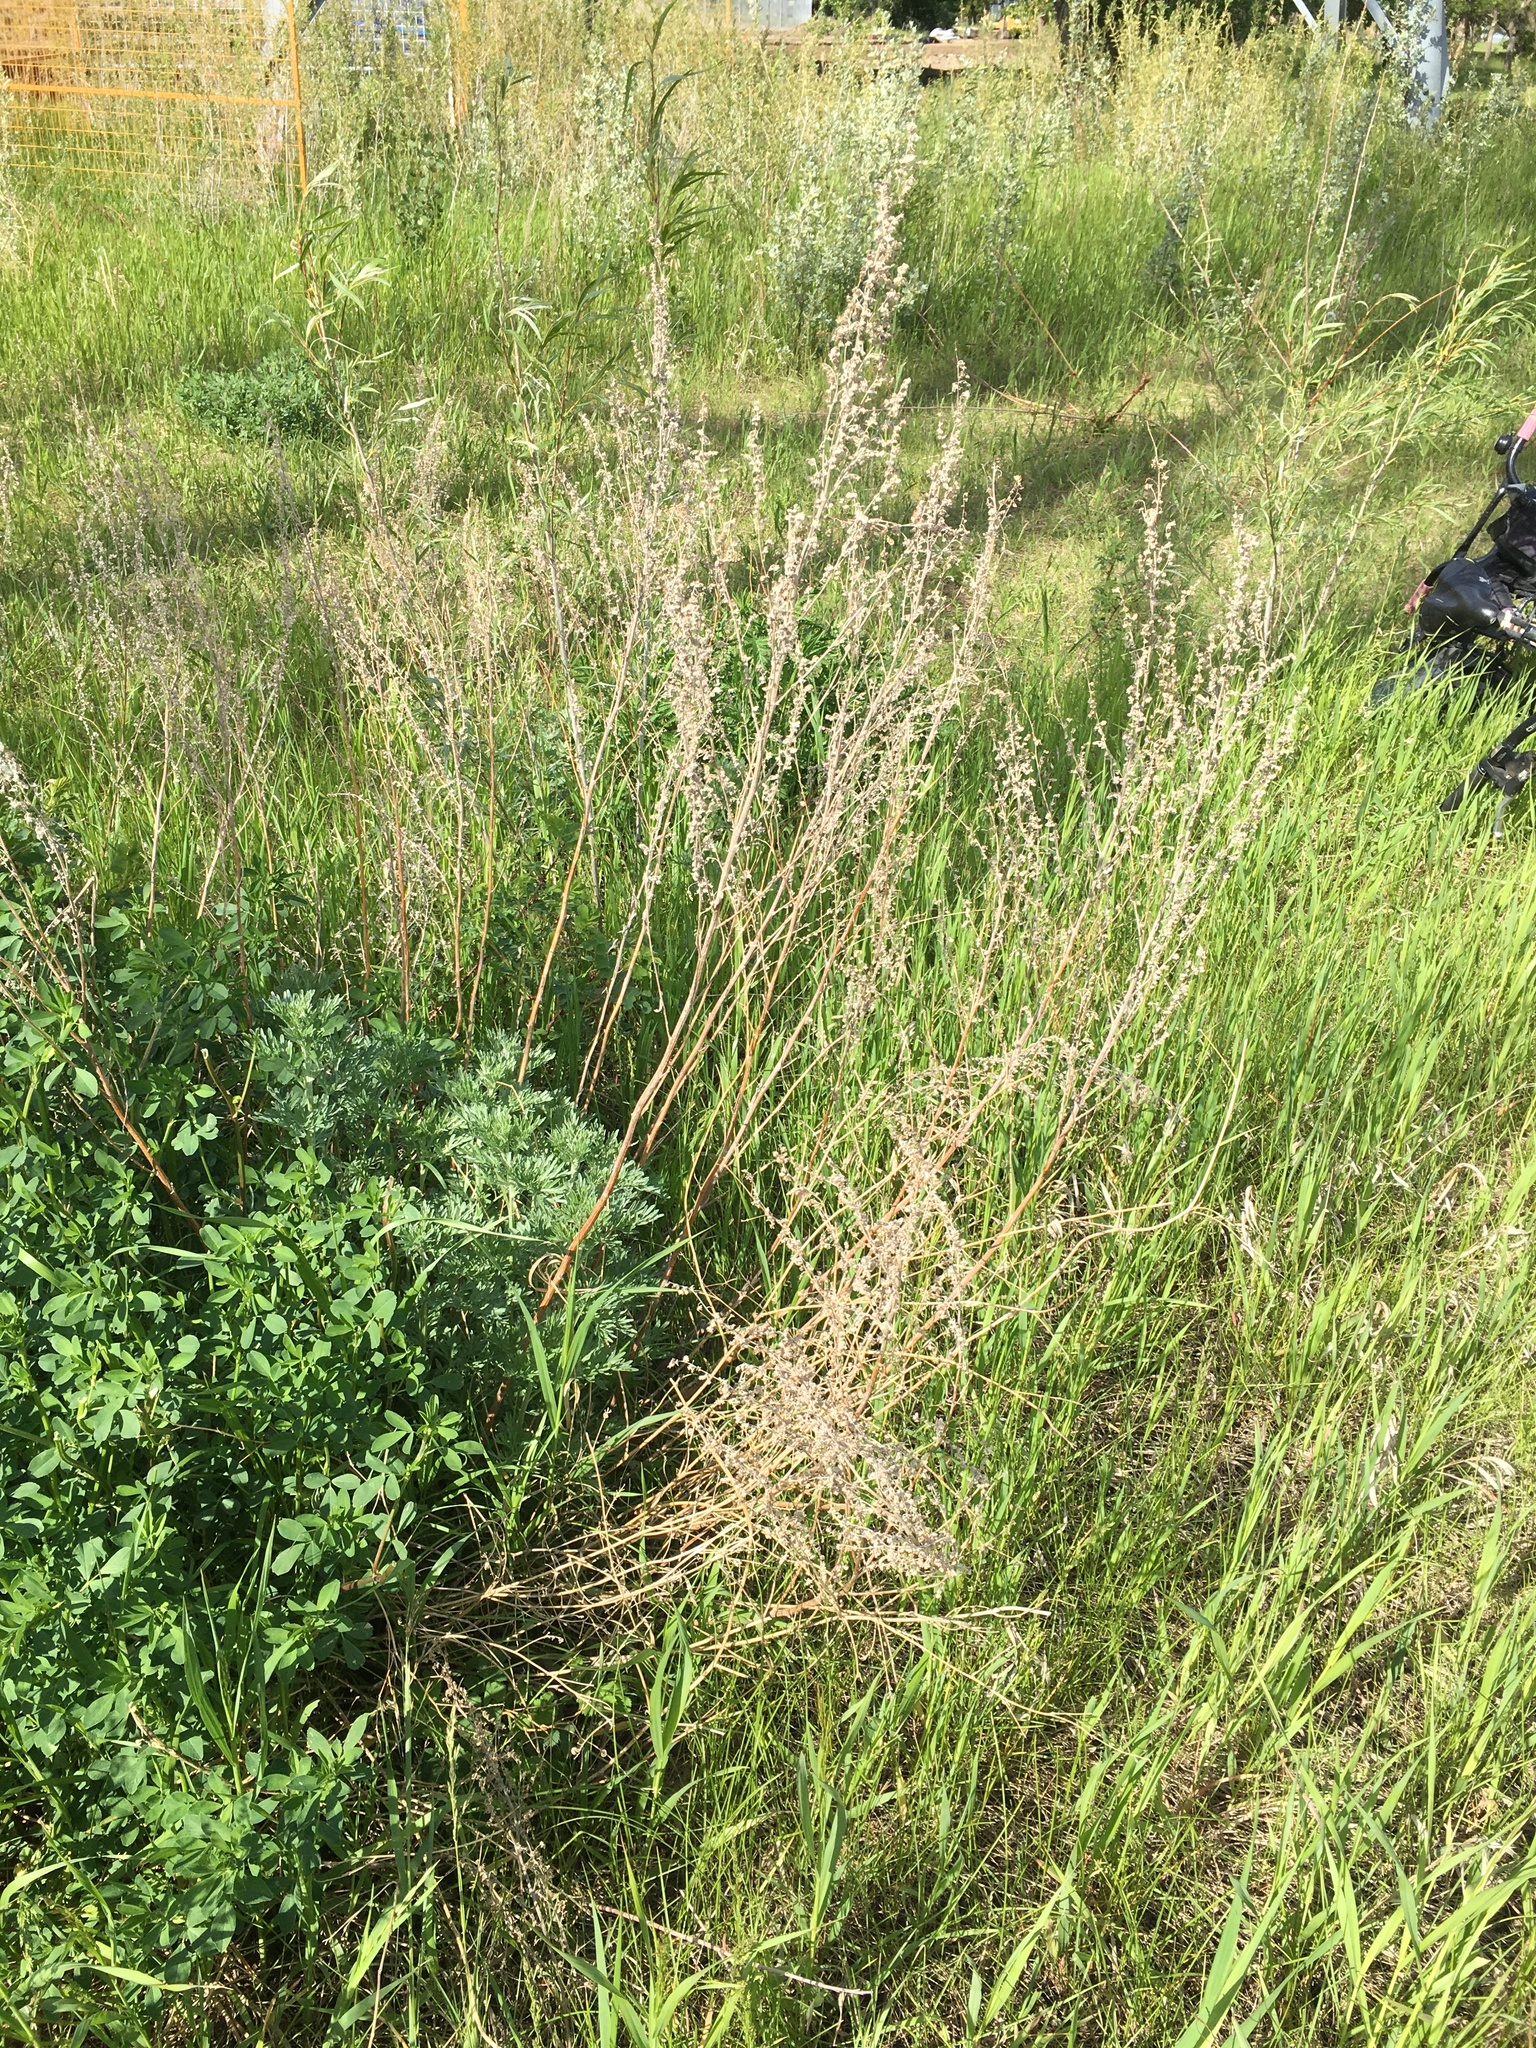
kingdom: Plantae
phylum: Tracheophyta
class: Magnoliopsida
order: Asterales
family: Asteraceae
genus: Artemisia
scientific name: Artemisia absinthium
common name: Wormwood
